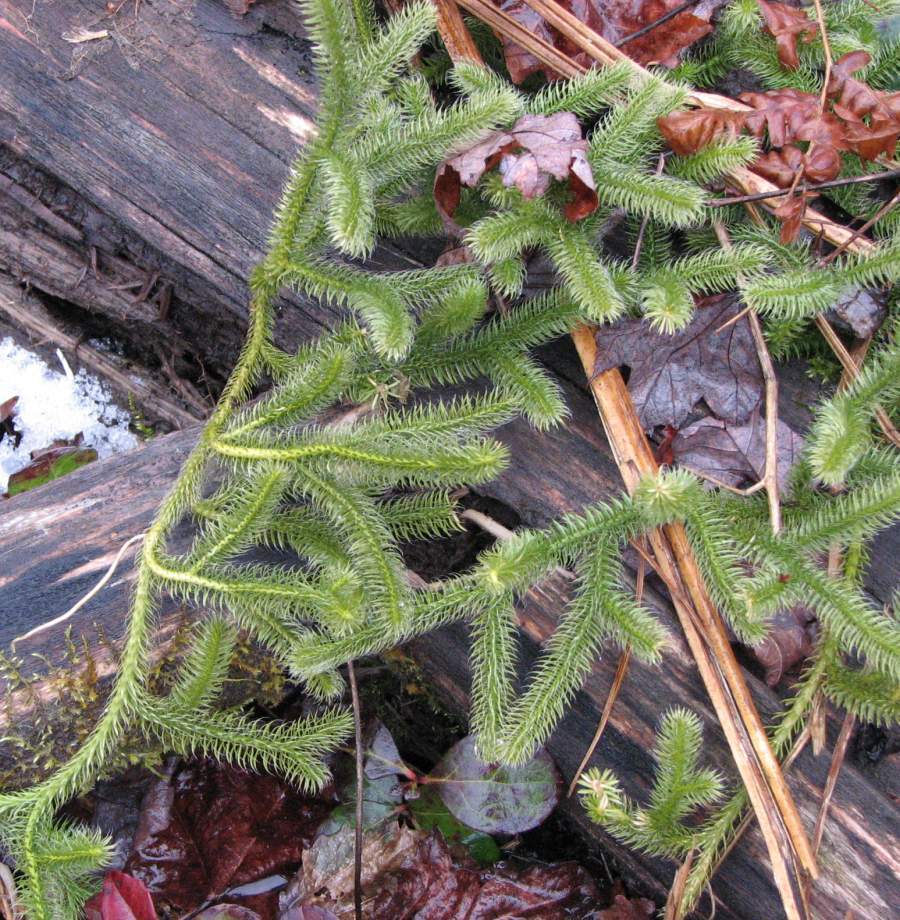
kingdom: Plantae
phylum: Tracheophyta
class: Lycopodiopsida
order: Lycopodiales
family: Lycopodiaceae
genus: Lycopodium
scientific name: Lycopodium clavatum
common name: Stag's-horn clubmoss
